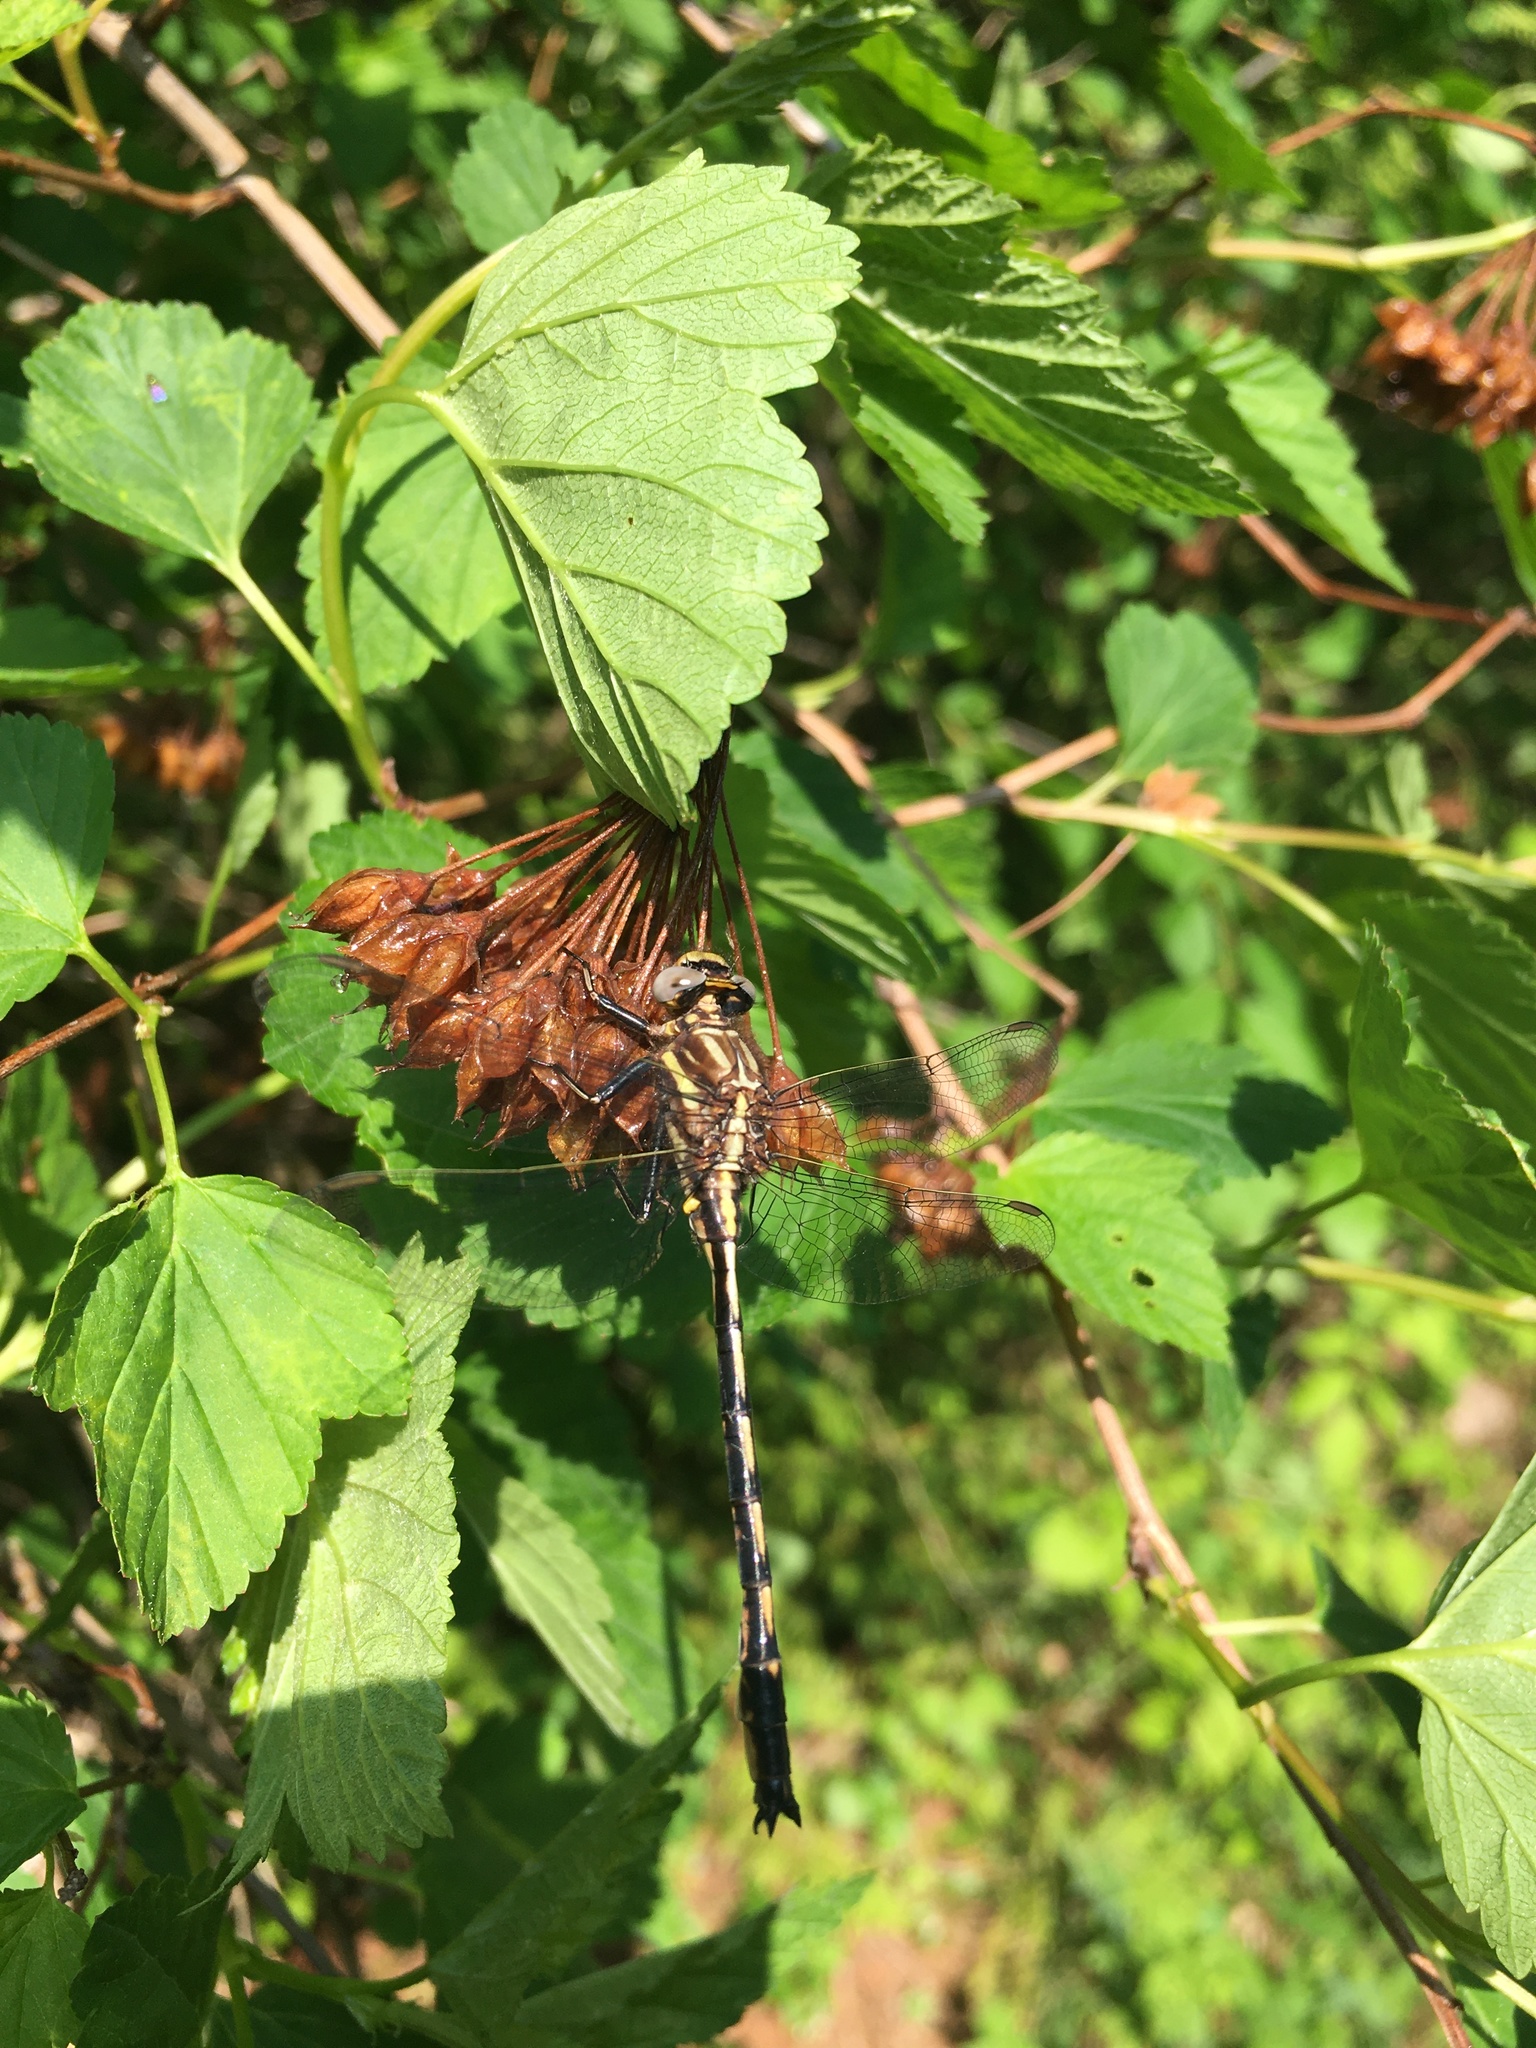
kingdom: Animalia
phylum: Arthropoda
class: Insecta
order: Odonata
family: Gomphidae
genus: Phanogomphus
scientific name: Phanogomphus lividus
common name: Ashy clubtail
